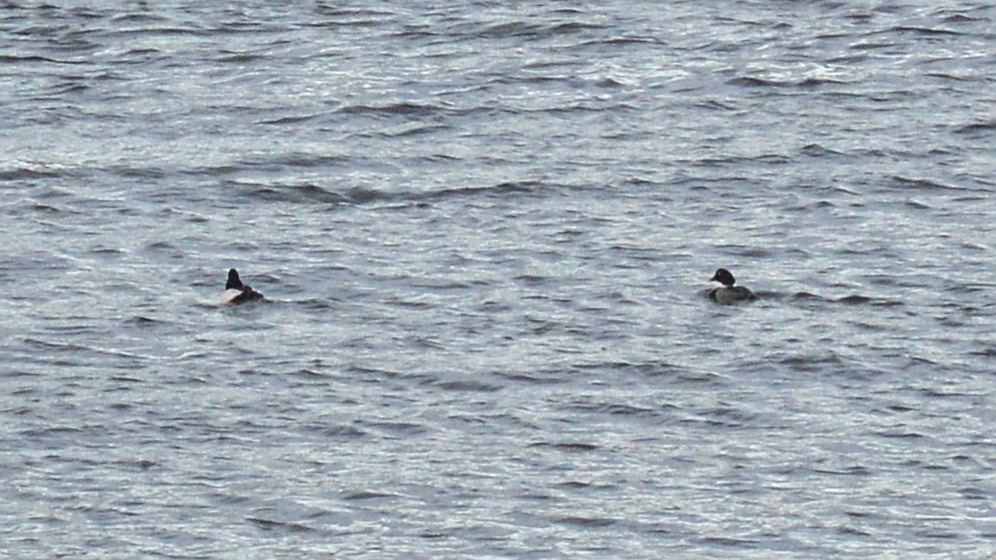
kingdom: Animalia
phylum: Chordata
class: Aves
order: Anseriformes
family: Anatidae
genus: Bucephala
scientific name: Bucephala clangula
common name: Common goldeneye
